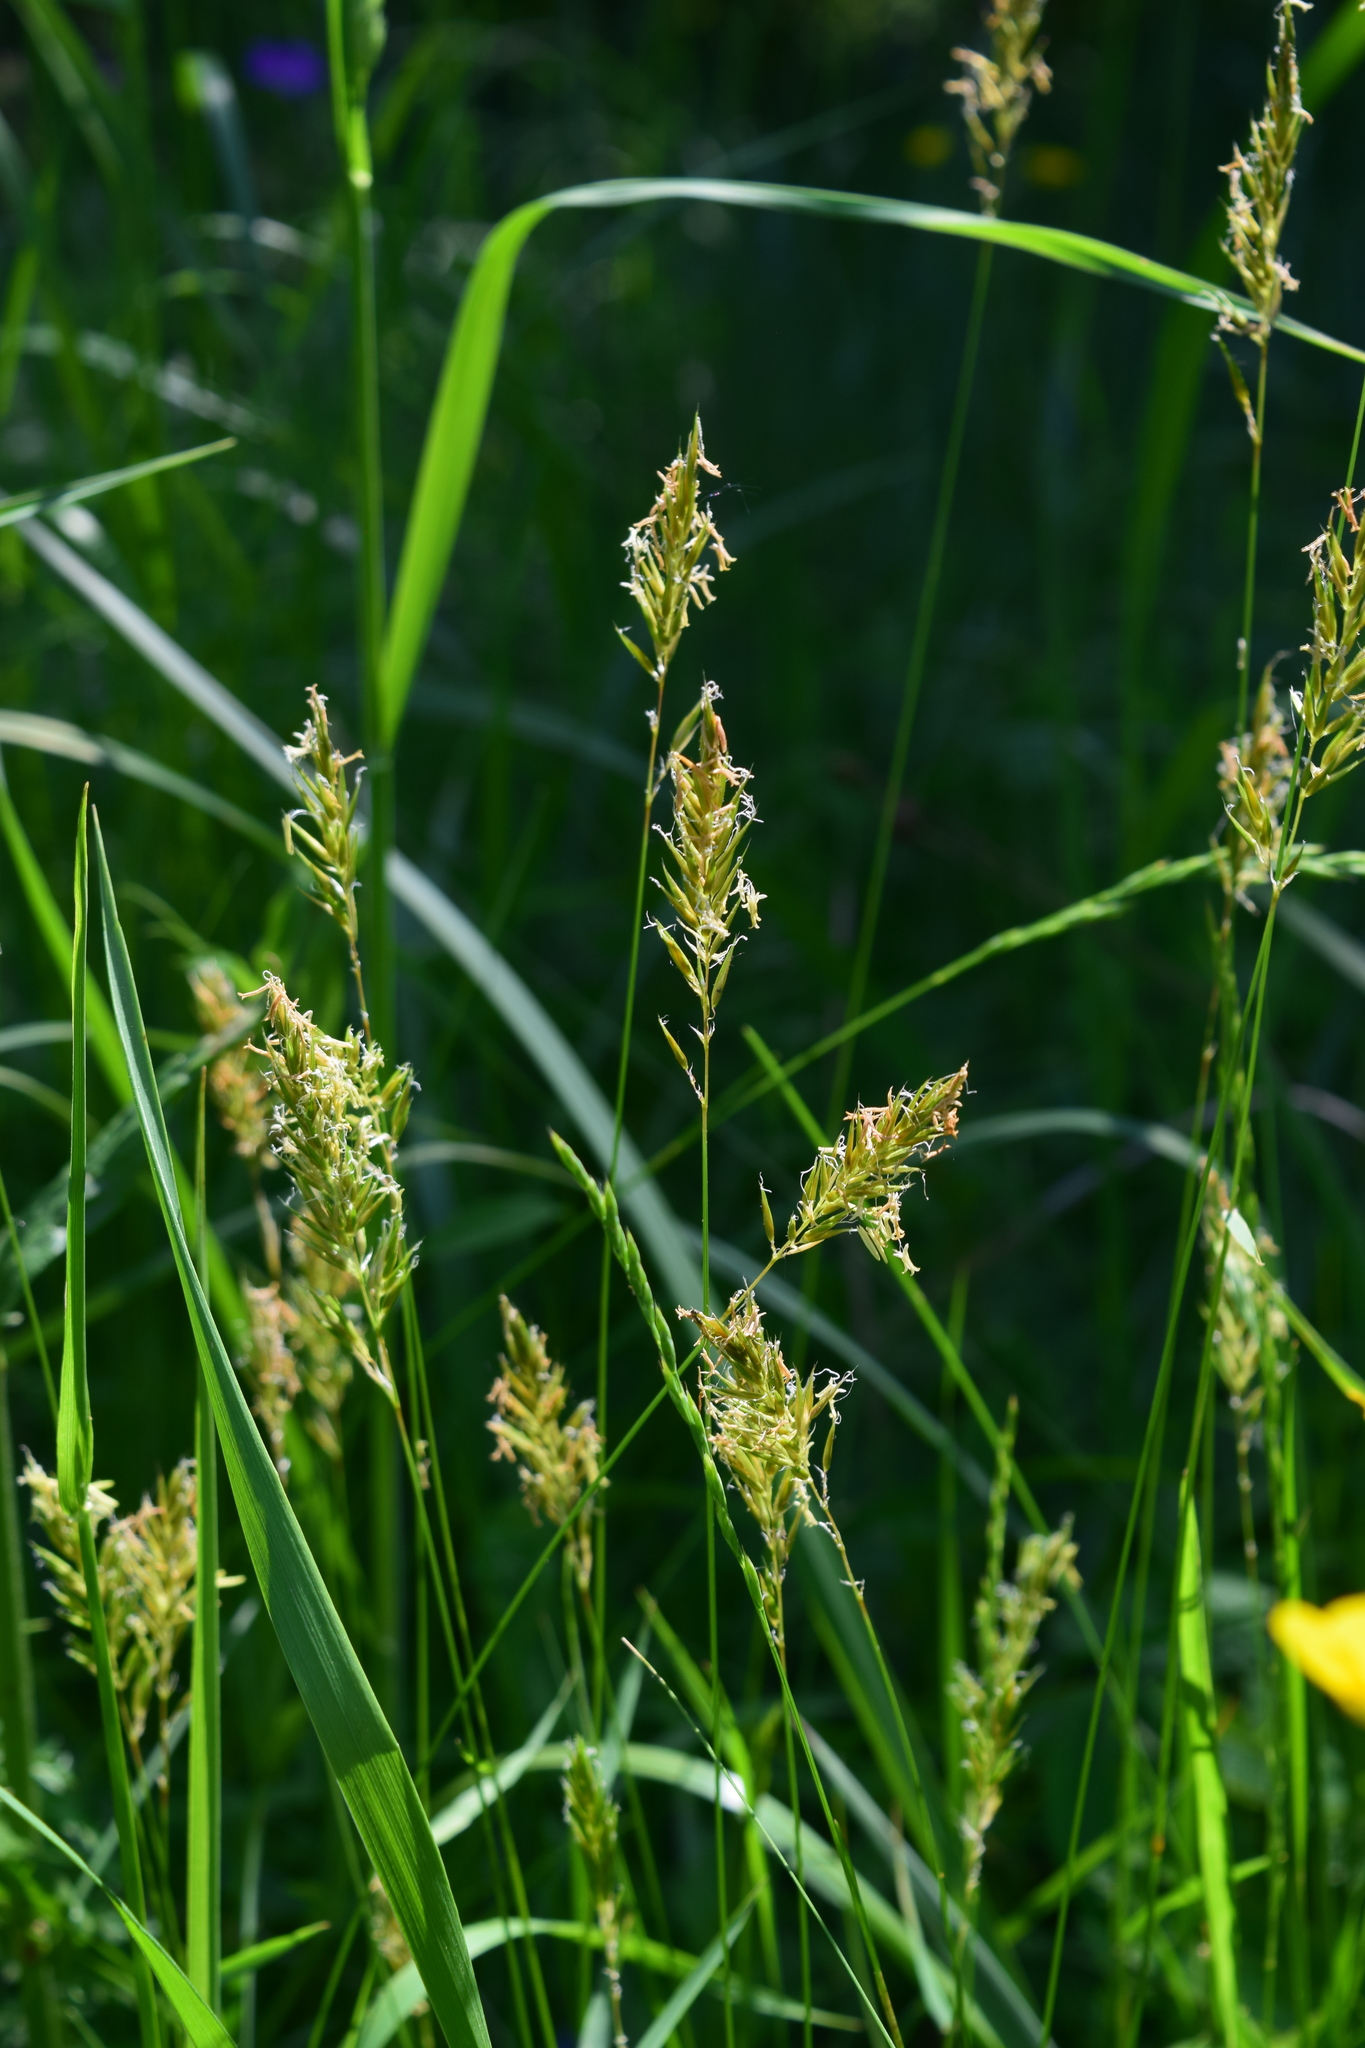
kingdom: Plantae
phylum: Tracheophyta
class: Liliopsida
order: Poales
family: Poaceae
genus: Anthoxanthum
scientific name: Anthoxanthum odoratum
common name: Sweet vernalgrass
